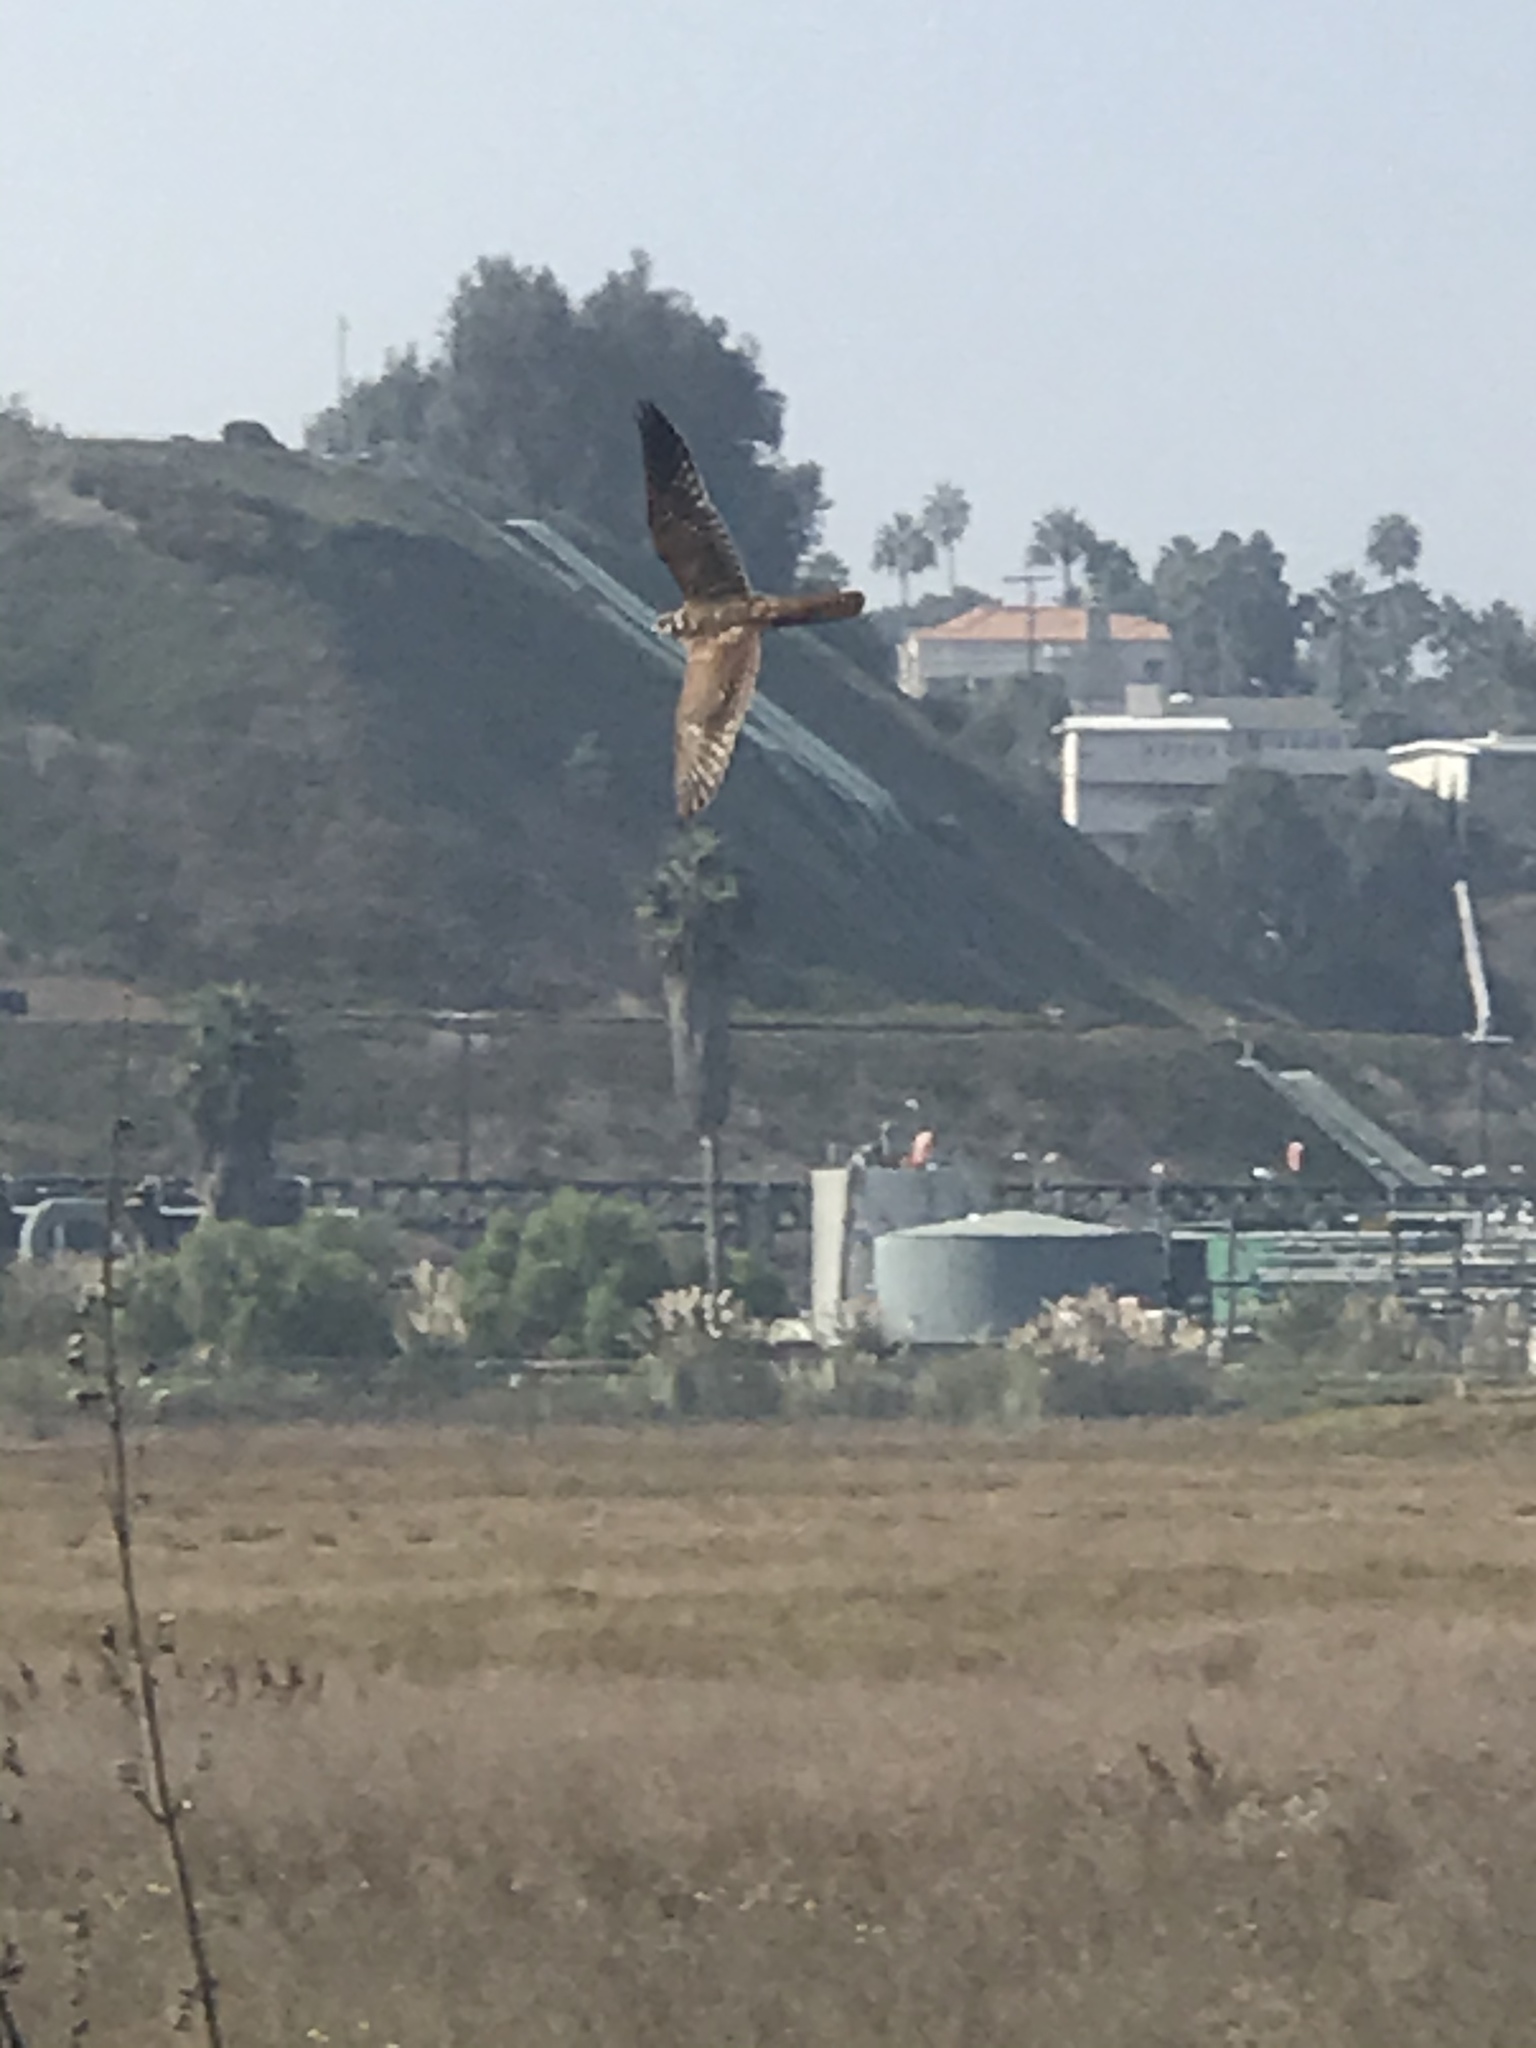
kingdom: Animalia
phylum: Chordata
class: Aves
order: Falconiformes
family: Falconidae
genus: Falco
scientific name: Falco sparverius
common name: American kestrel
